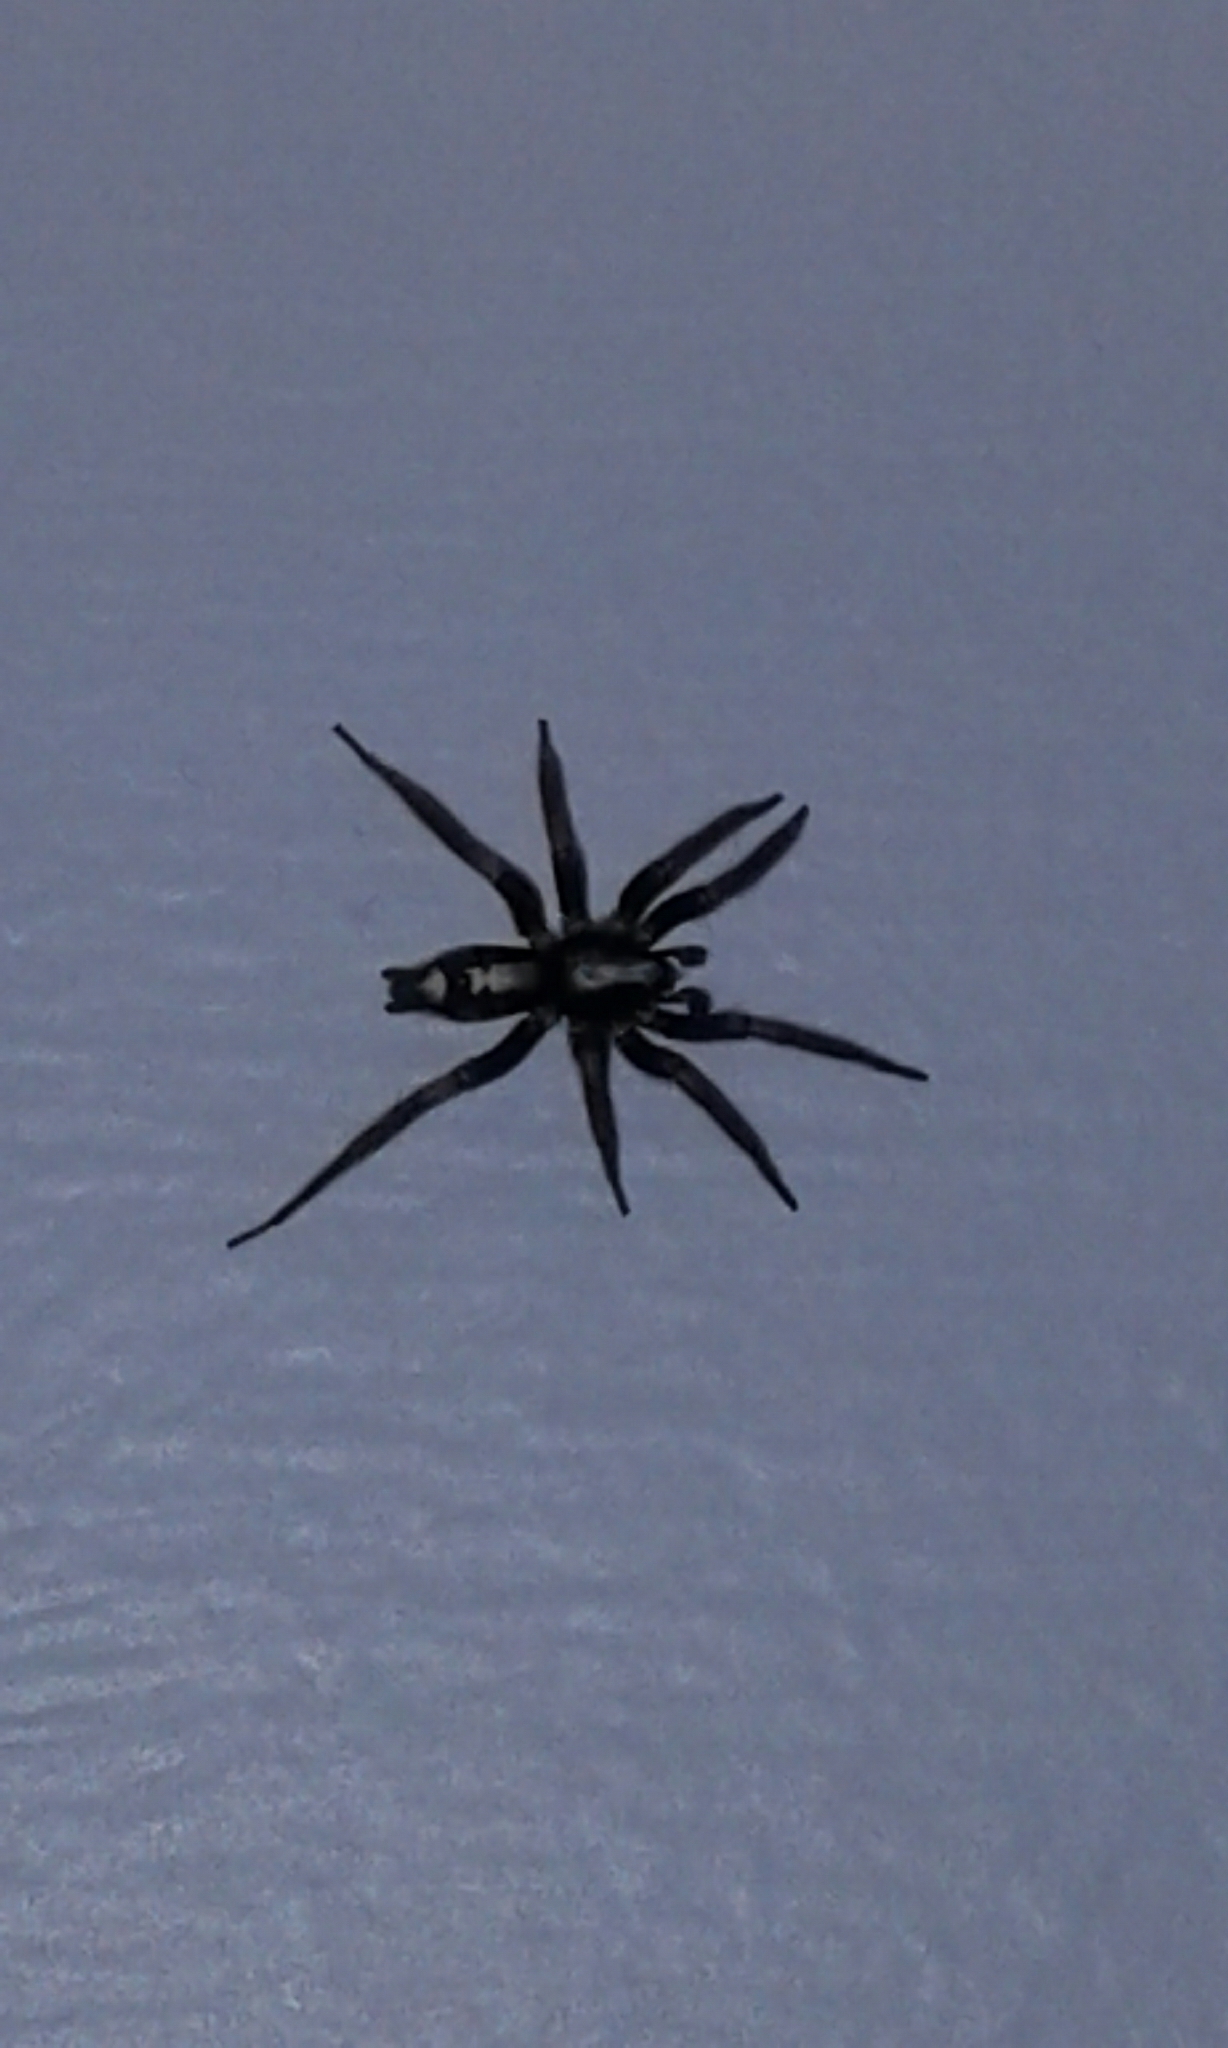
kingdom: Animalia
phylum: Arthropoda
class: Arachnida
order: Araneae
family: Gnaphosidae
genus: Herpyllus
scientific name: Herpyllus ecclesiasticus
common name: Eastern parson spider
